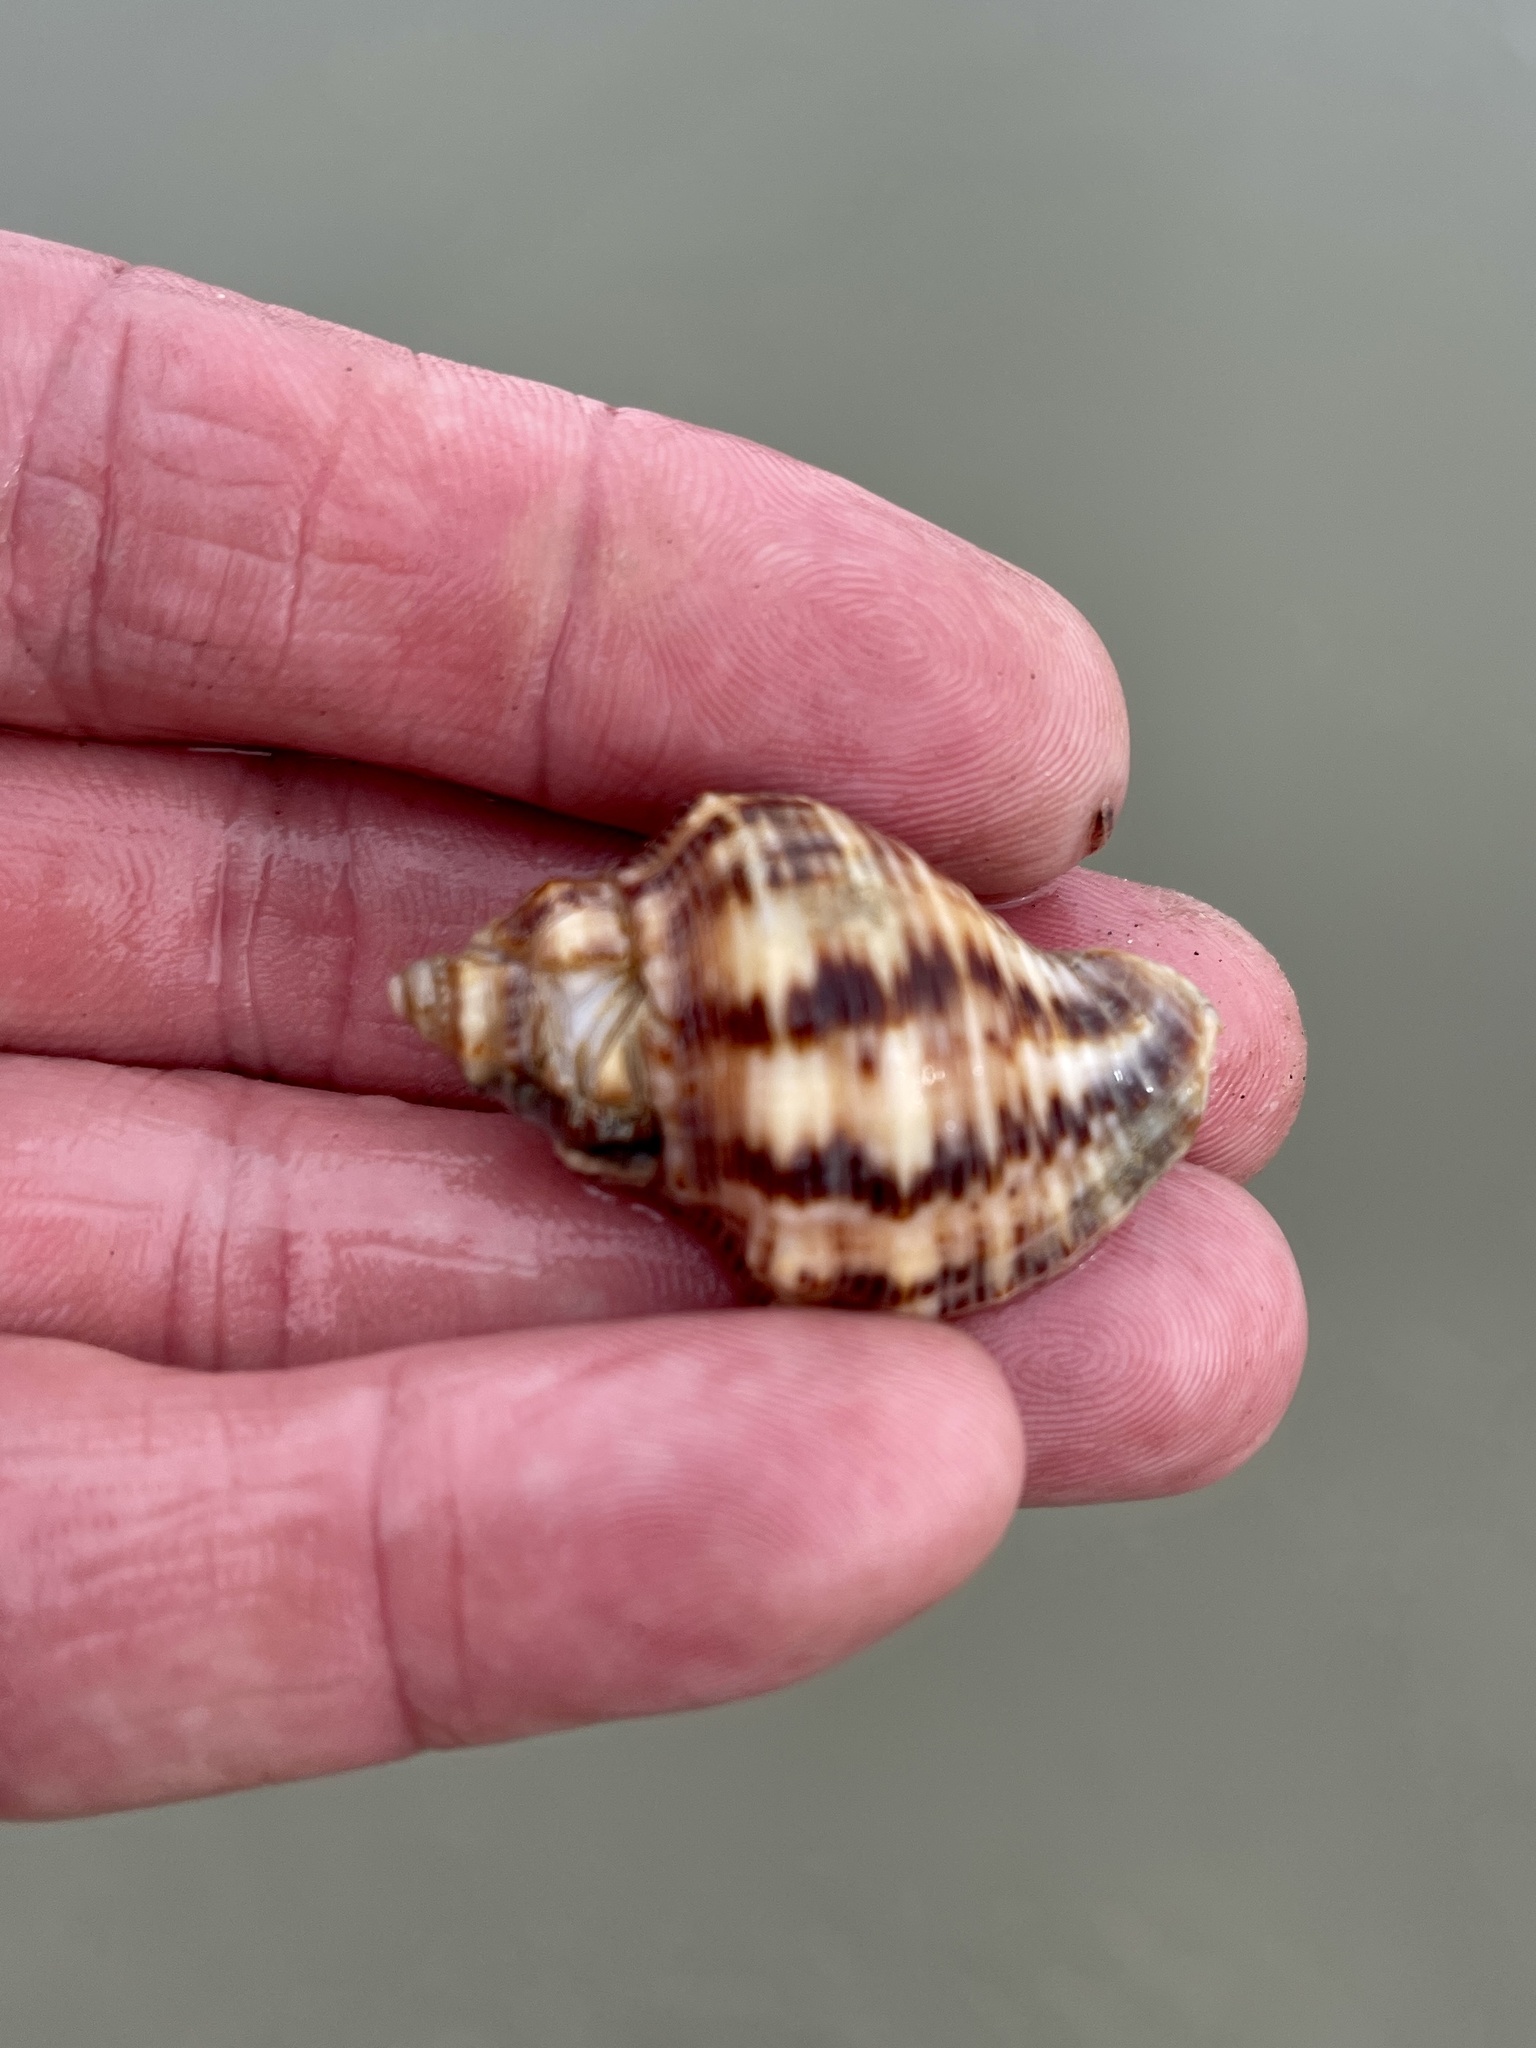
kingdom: Animalia
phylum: Mollusca
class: Gastropoda
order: Neogastropoda
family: Muricidae
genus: Stramonita
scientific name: Stramonita floridana
